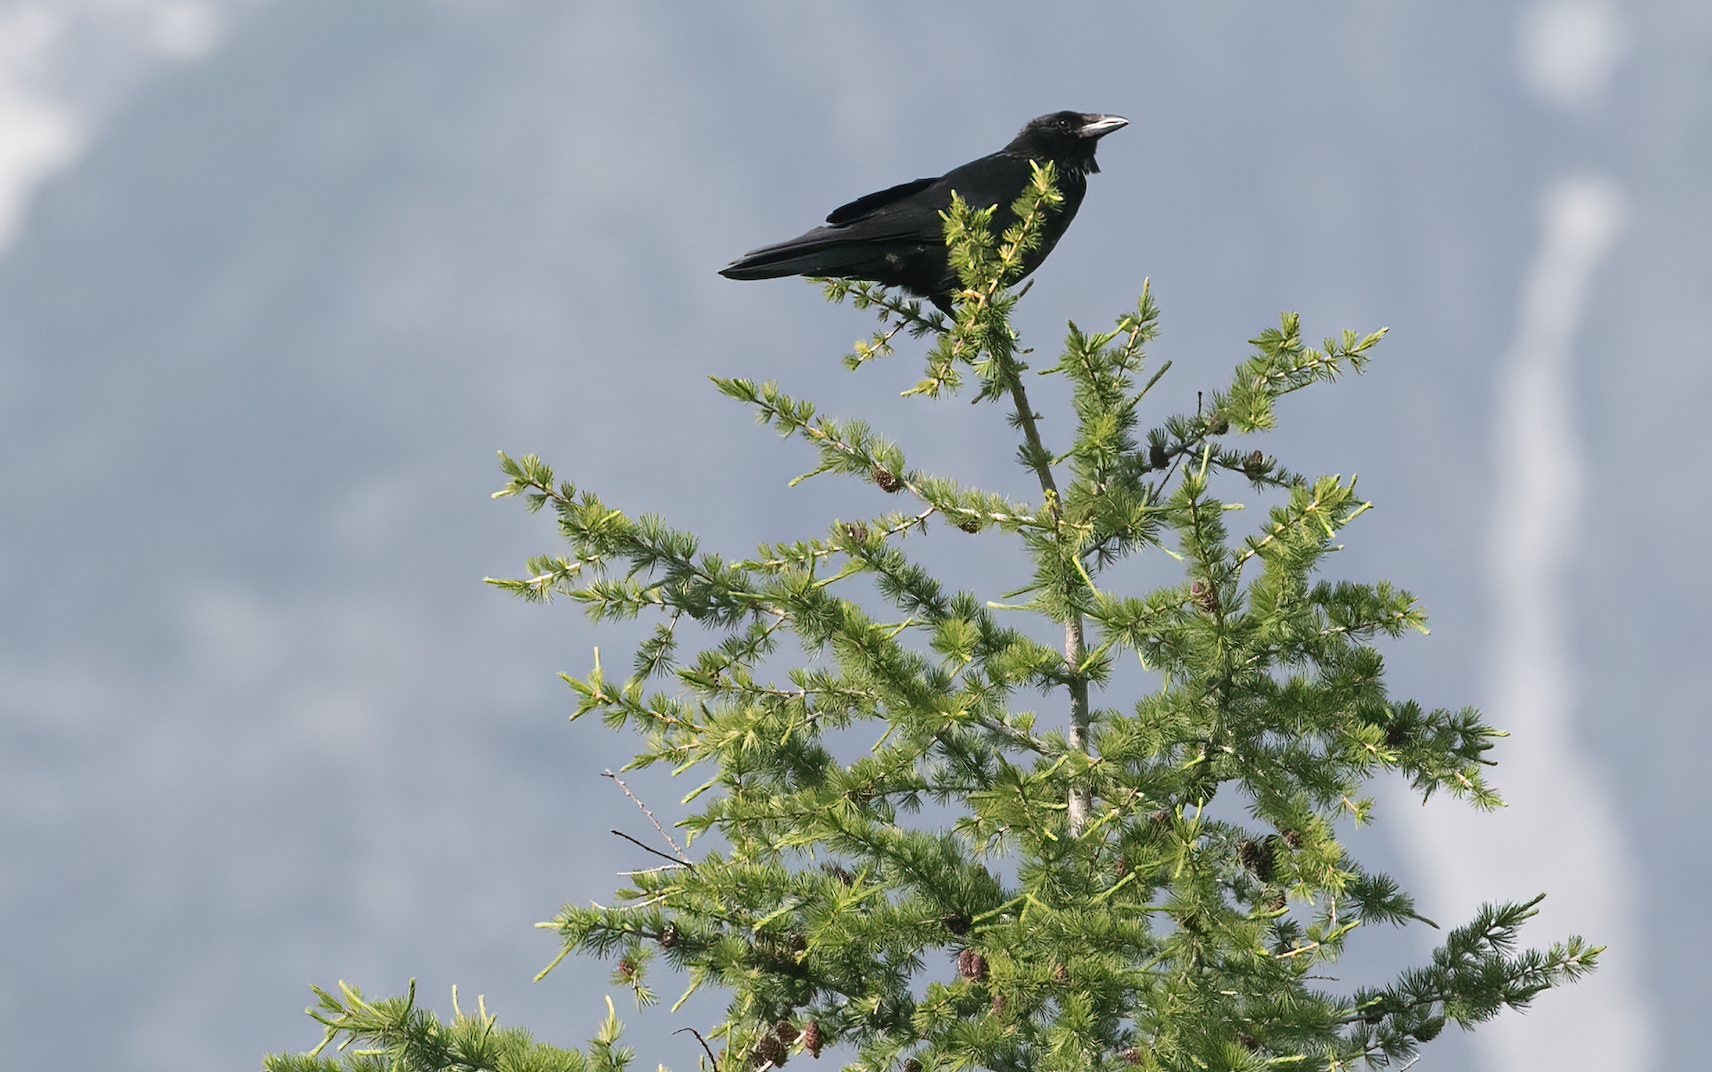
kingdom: Animalia
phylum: Chordata
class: Aves
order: Passeriformes
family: Corvidae
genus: Corvus
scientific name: Corvus
